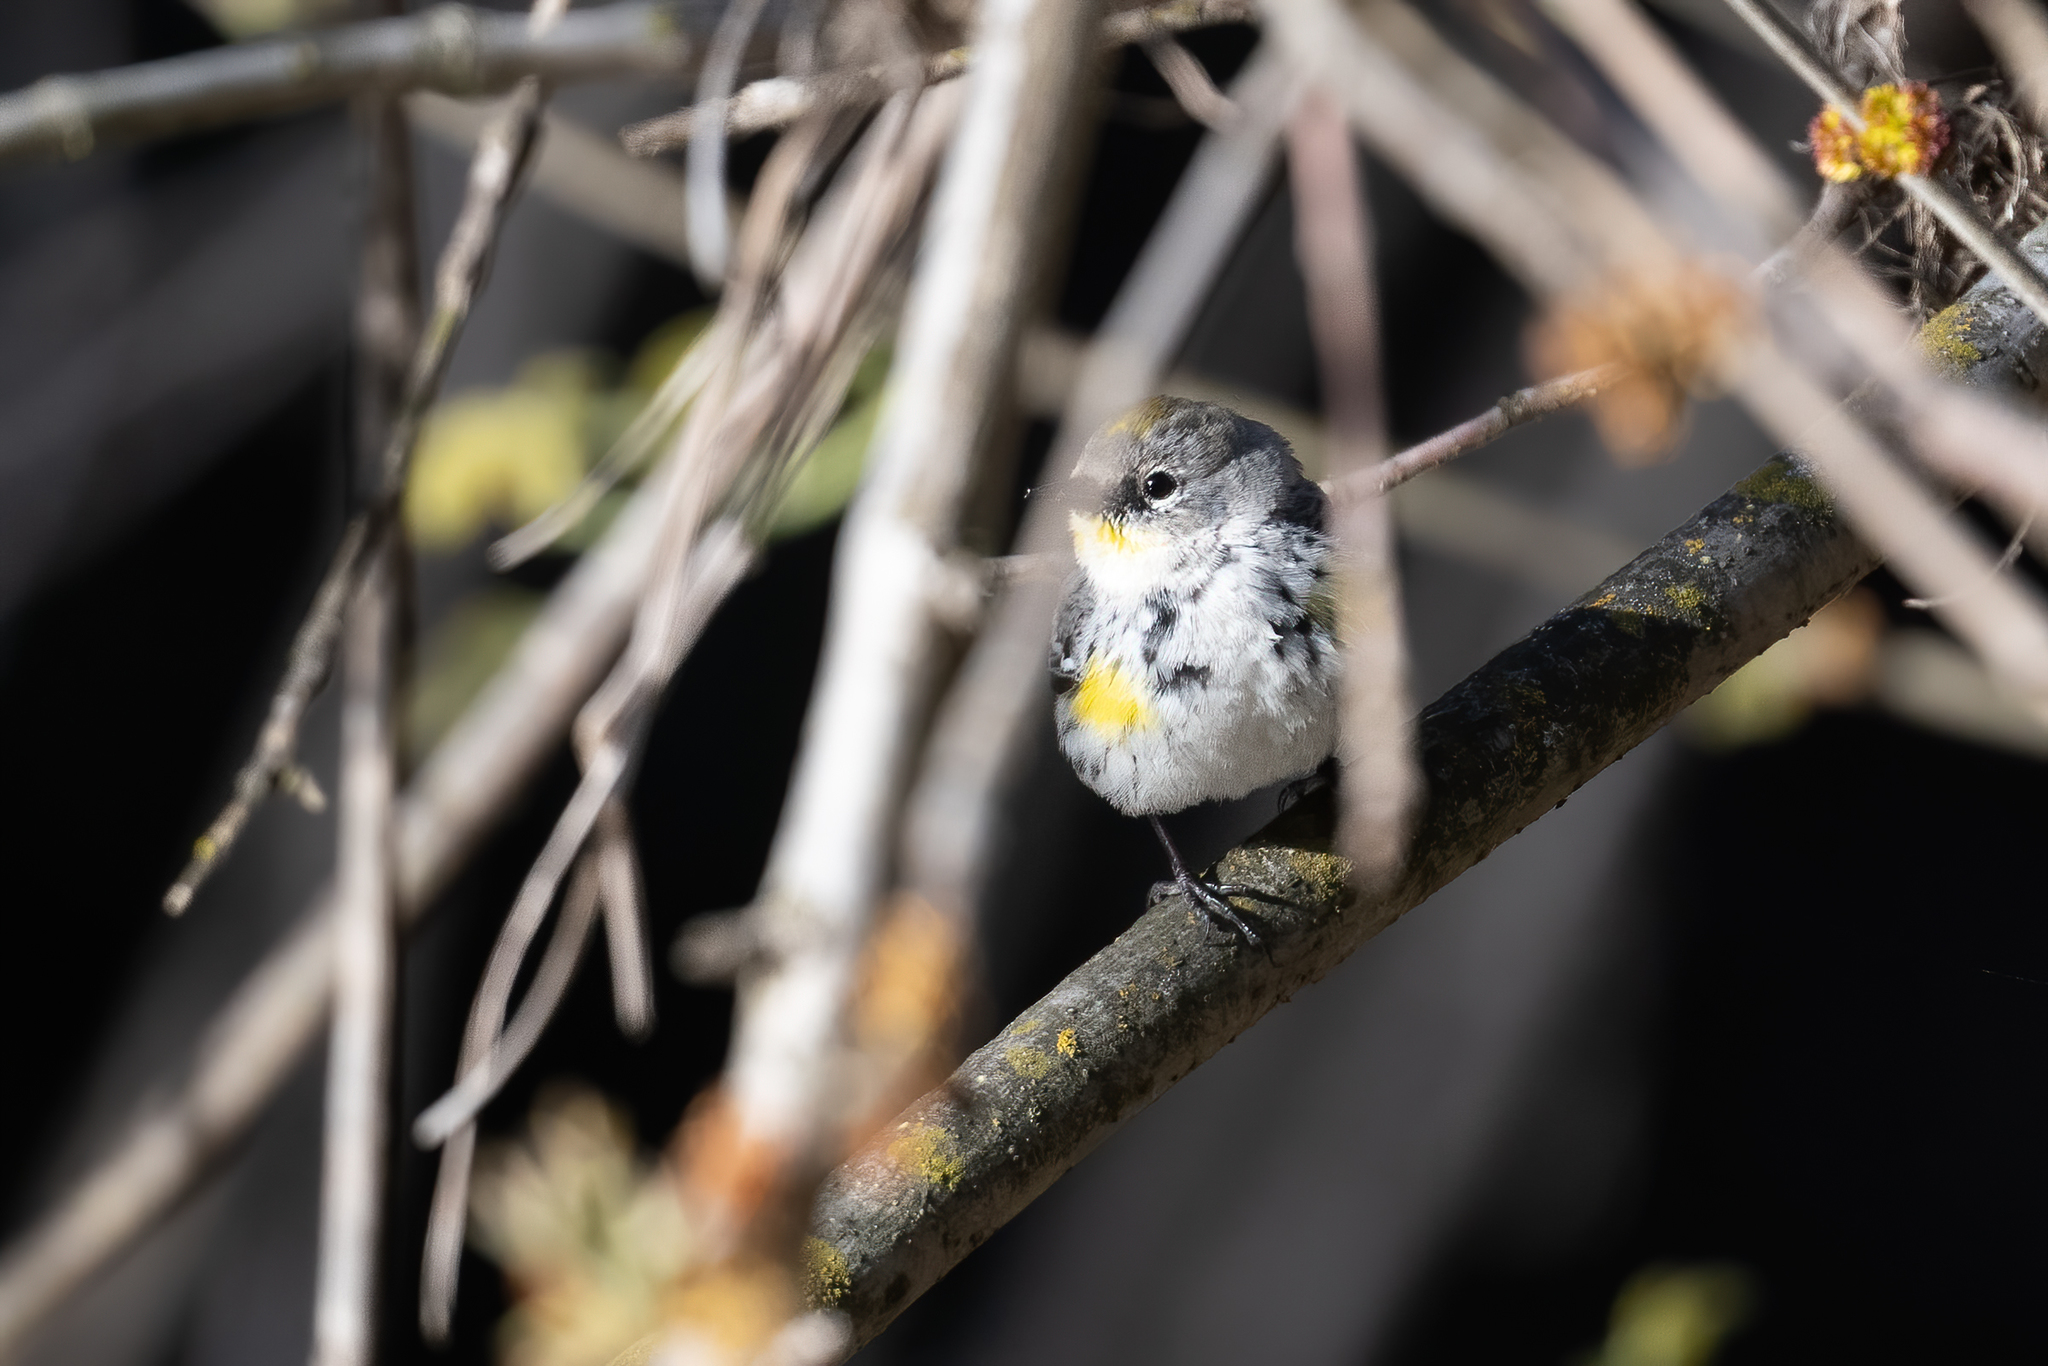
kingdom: Animalia
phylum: Chordata
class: Aves
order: Passeriformes
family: Parulidae
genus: Setophaga
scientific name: Setophaga coronata
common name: Myrtle warbler
